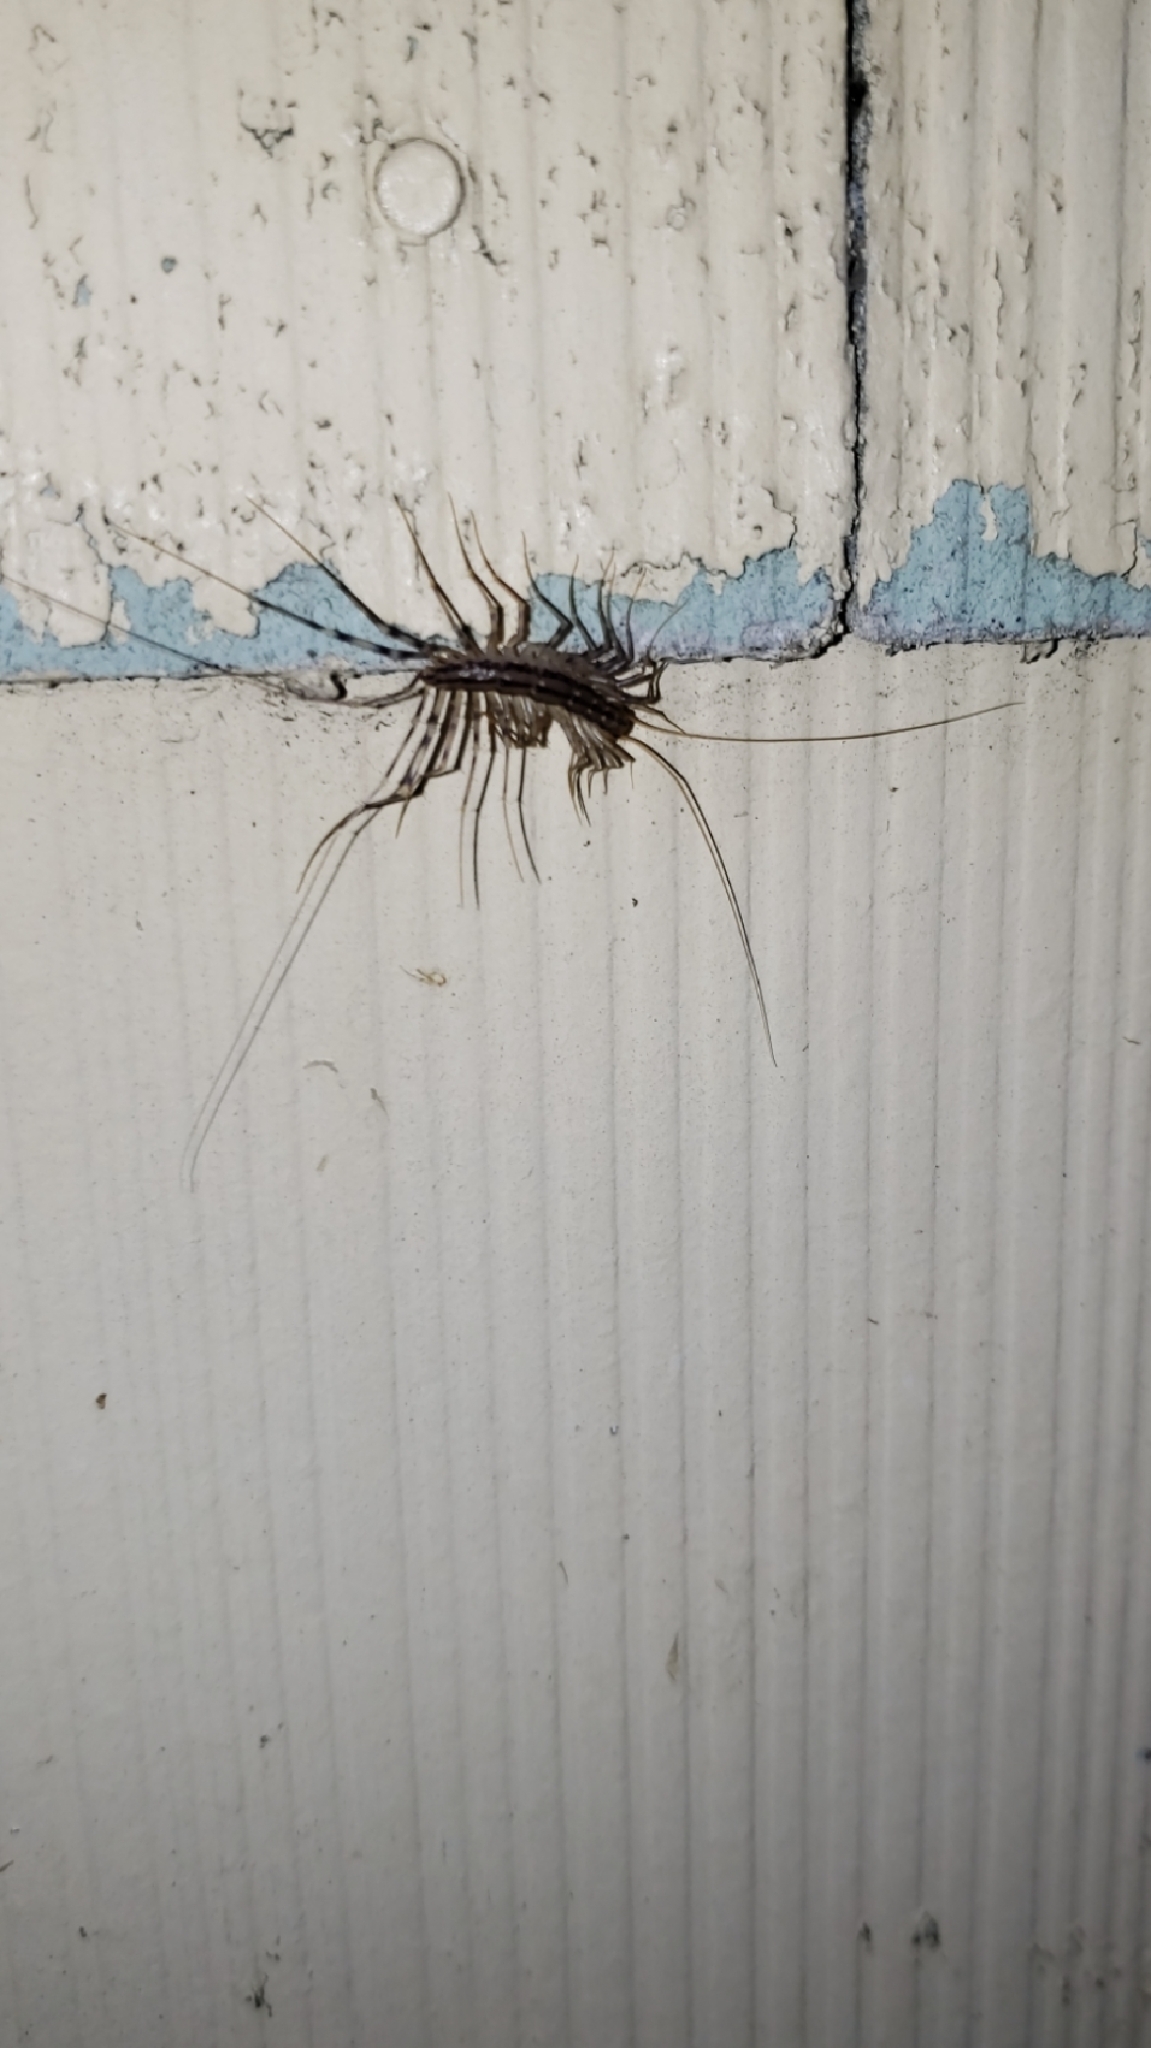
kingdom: Animalia
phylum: Arthropoda
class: Chilopoda
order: Scutigeromorpha
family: Scutigeridae
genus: Scutigera
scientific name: Scutigera coleoptrata
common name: House centipede
